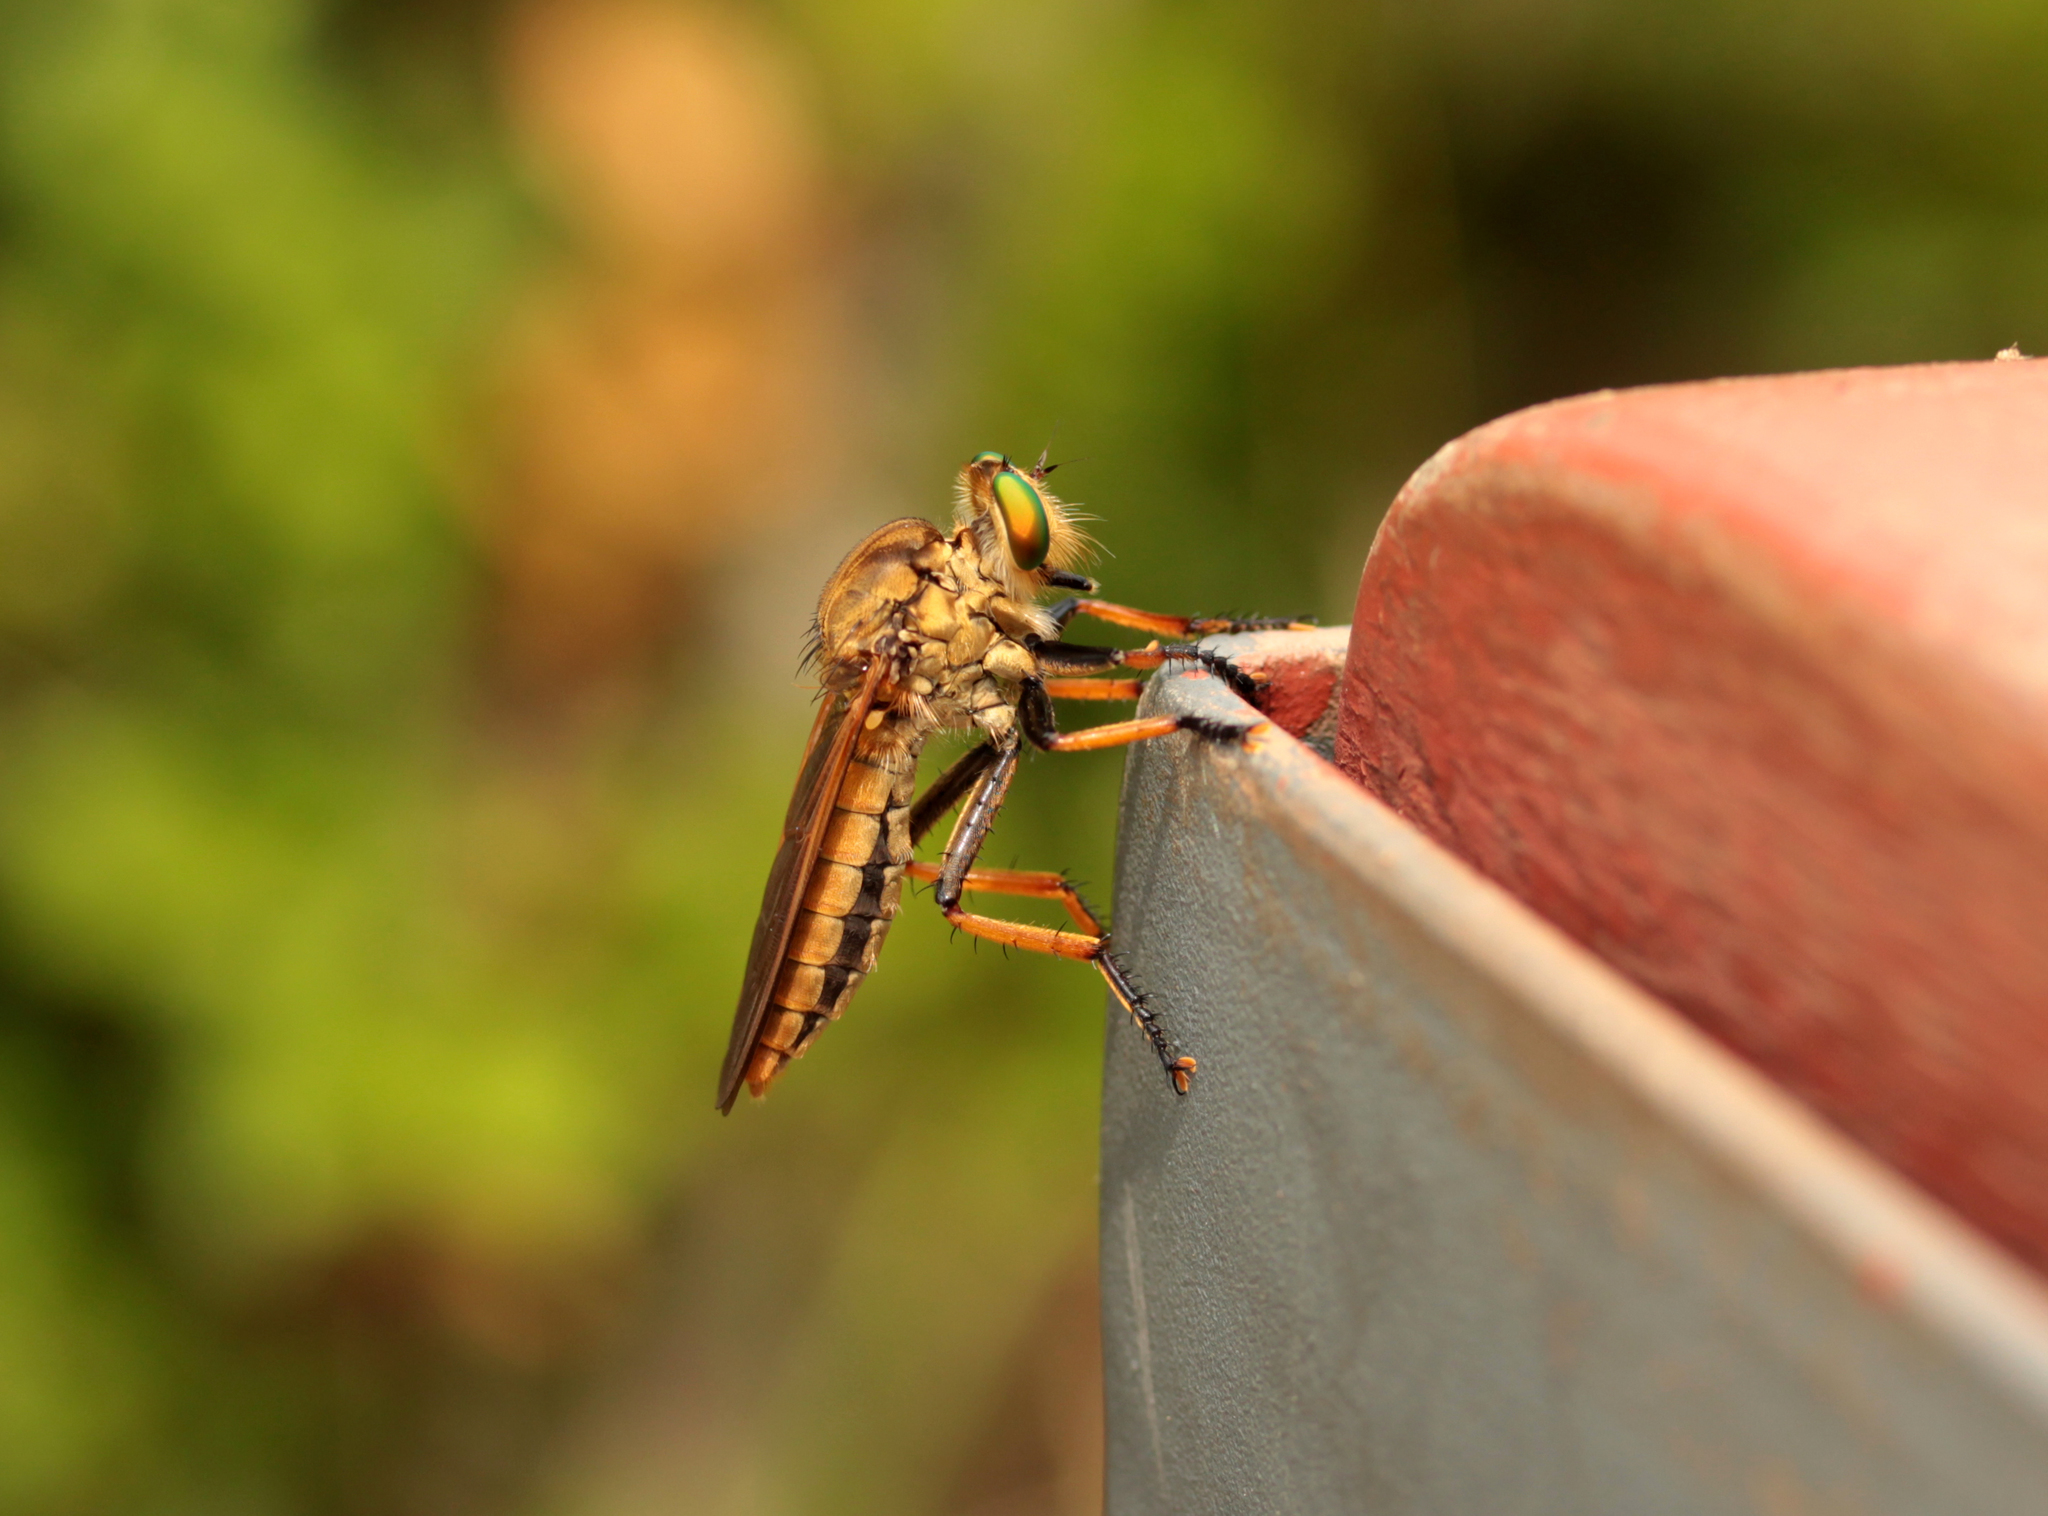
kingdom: Animalia
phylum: Arthropoda
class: Insecta
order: Diptera
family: Asilidae
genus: Cophinopoda
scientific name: Cophinopoda
